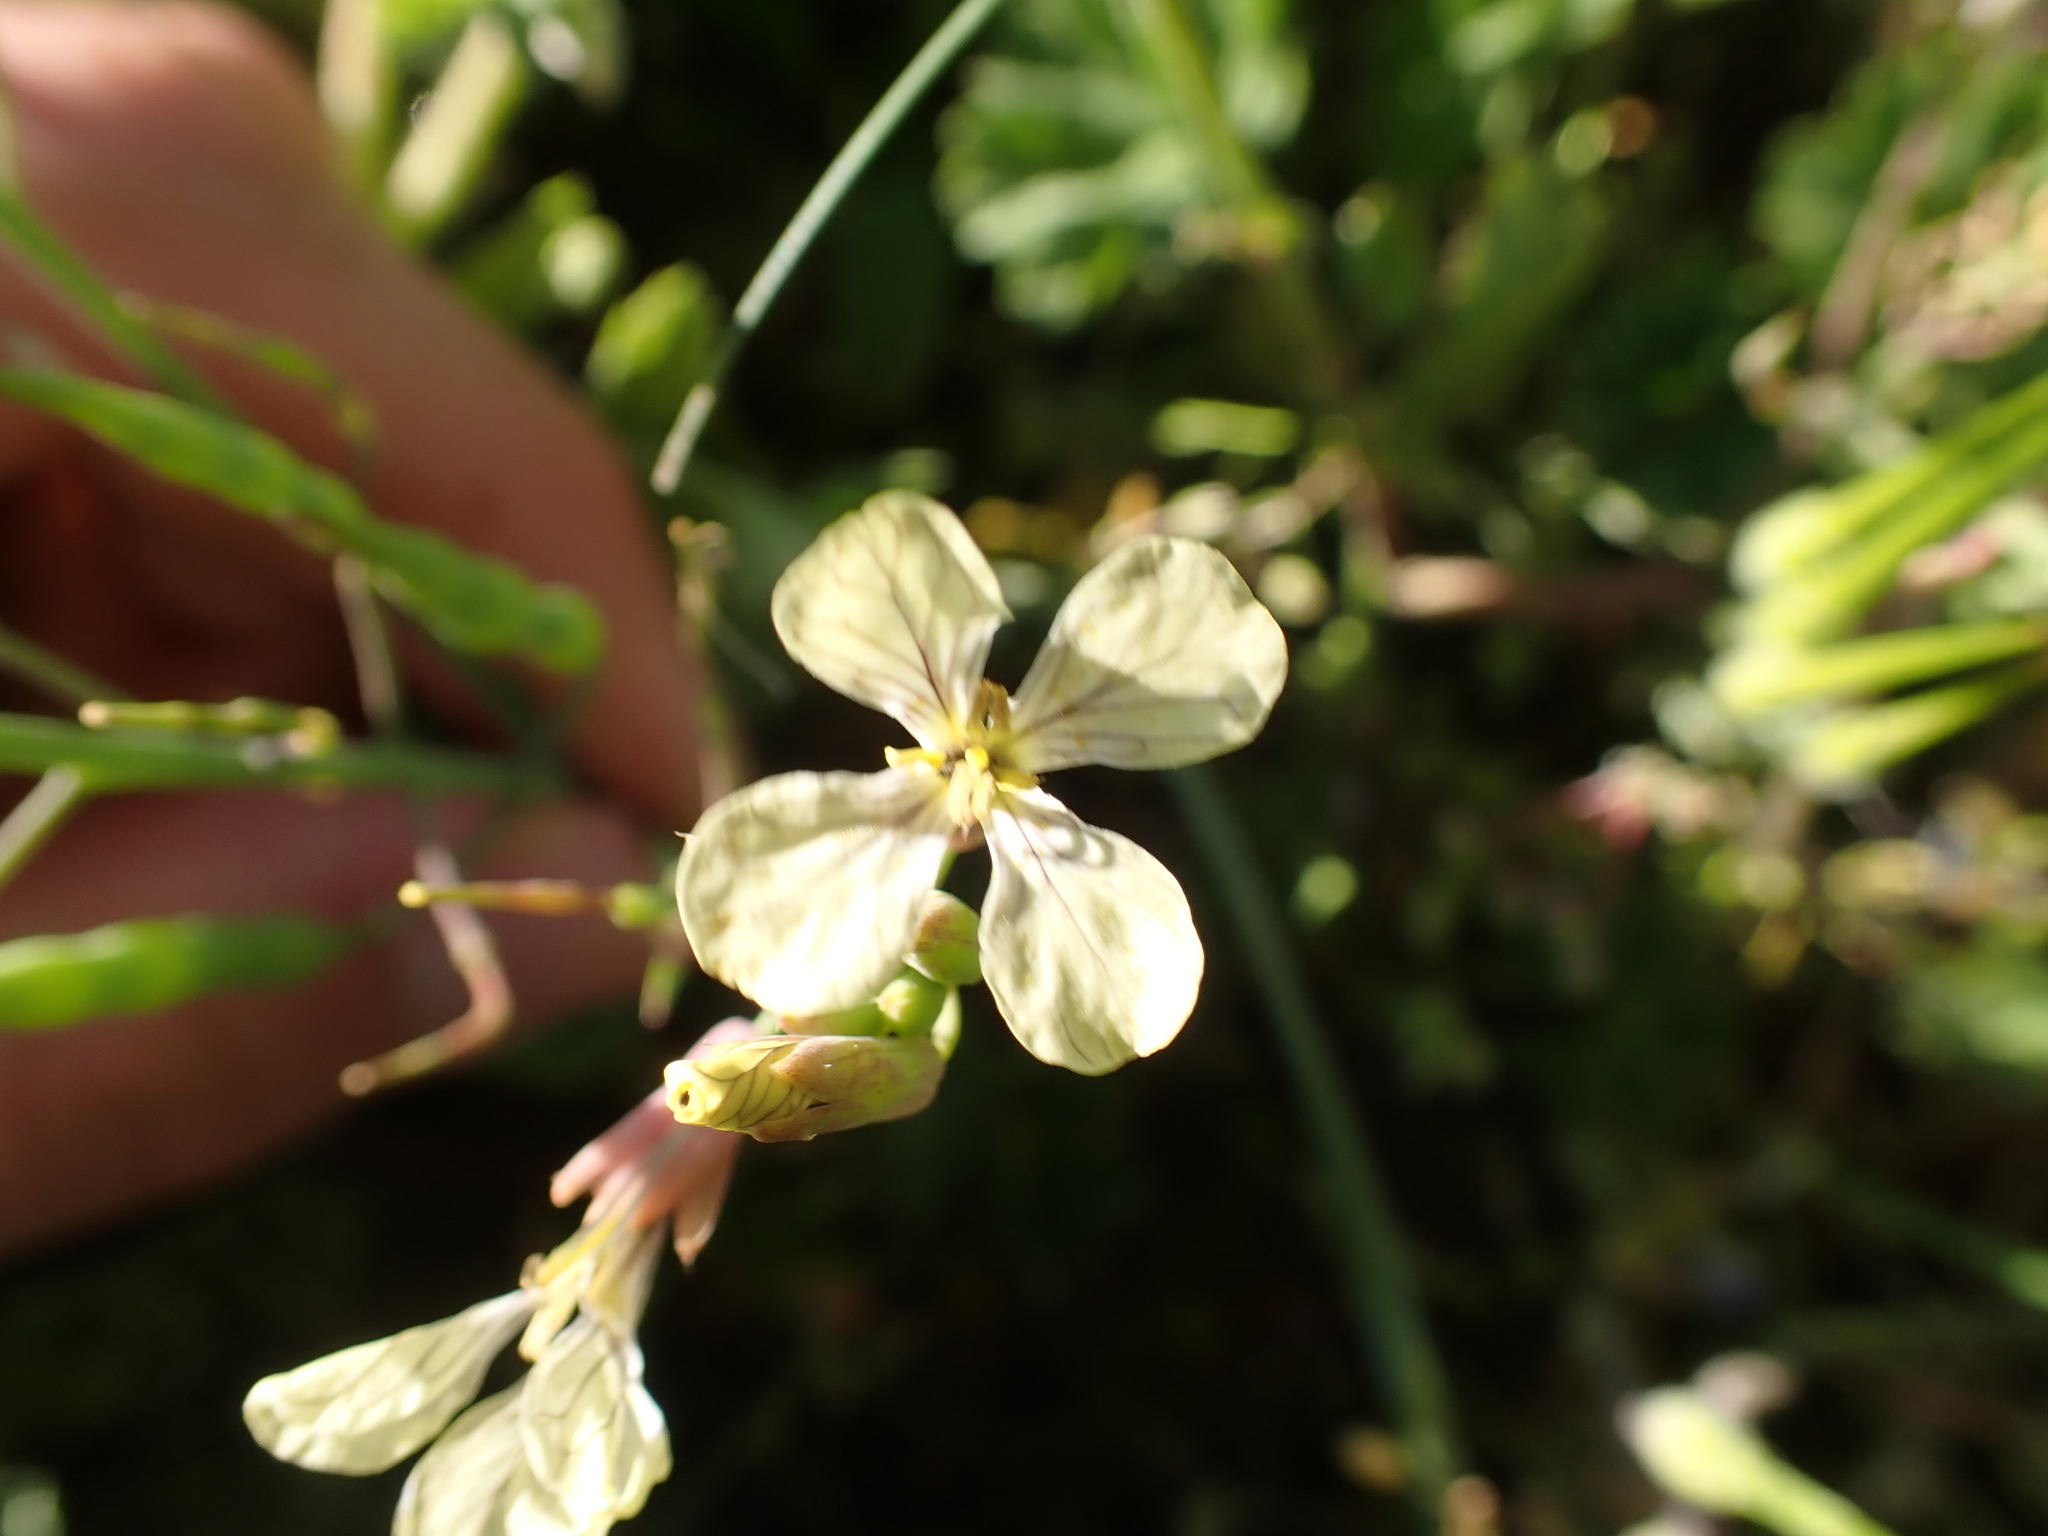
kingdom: Plantae
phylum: Tracheophyta
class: Magnoliopsida
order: Brassicales
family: Brassicaceae
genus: Raphanus
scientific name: Raphanus raphanistrum
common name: Wild radish
